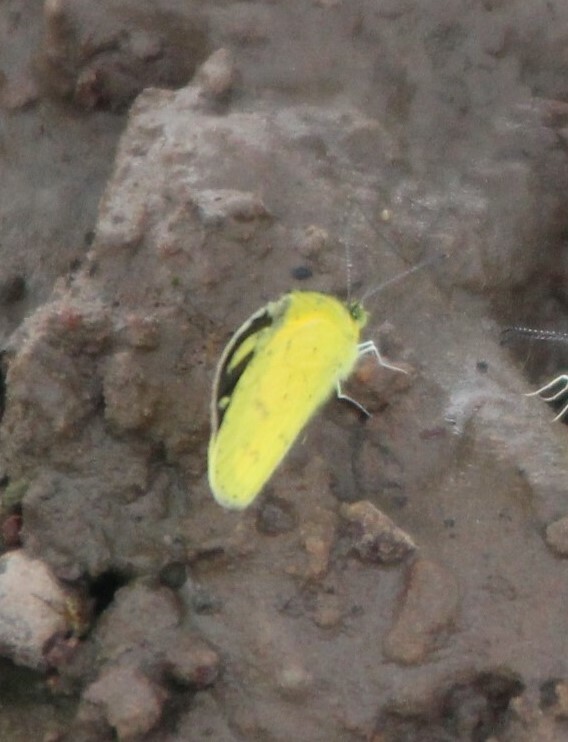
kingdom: Animalia
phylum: Arthropoda
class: Insecta
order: Lepidoptera
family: Pieridae
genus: Eurema
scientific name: Eurema desjardinsii
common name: Angled grass yellow
